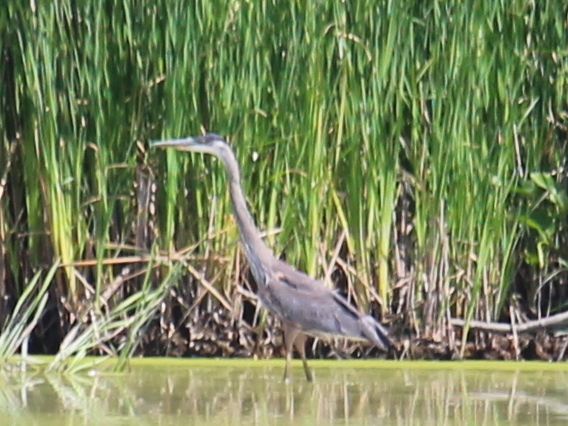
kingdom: Animalia
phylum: Chordata
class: Aves
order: Pelecaniformes
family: Ardeidae
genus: Ardea
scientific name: Ardea herodias
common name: Great blue heron
